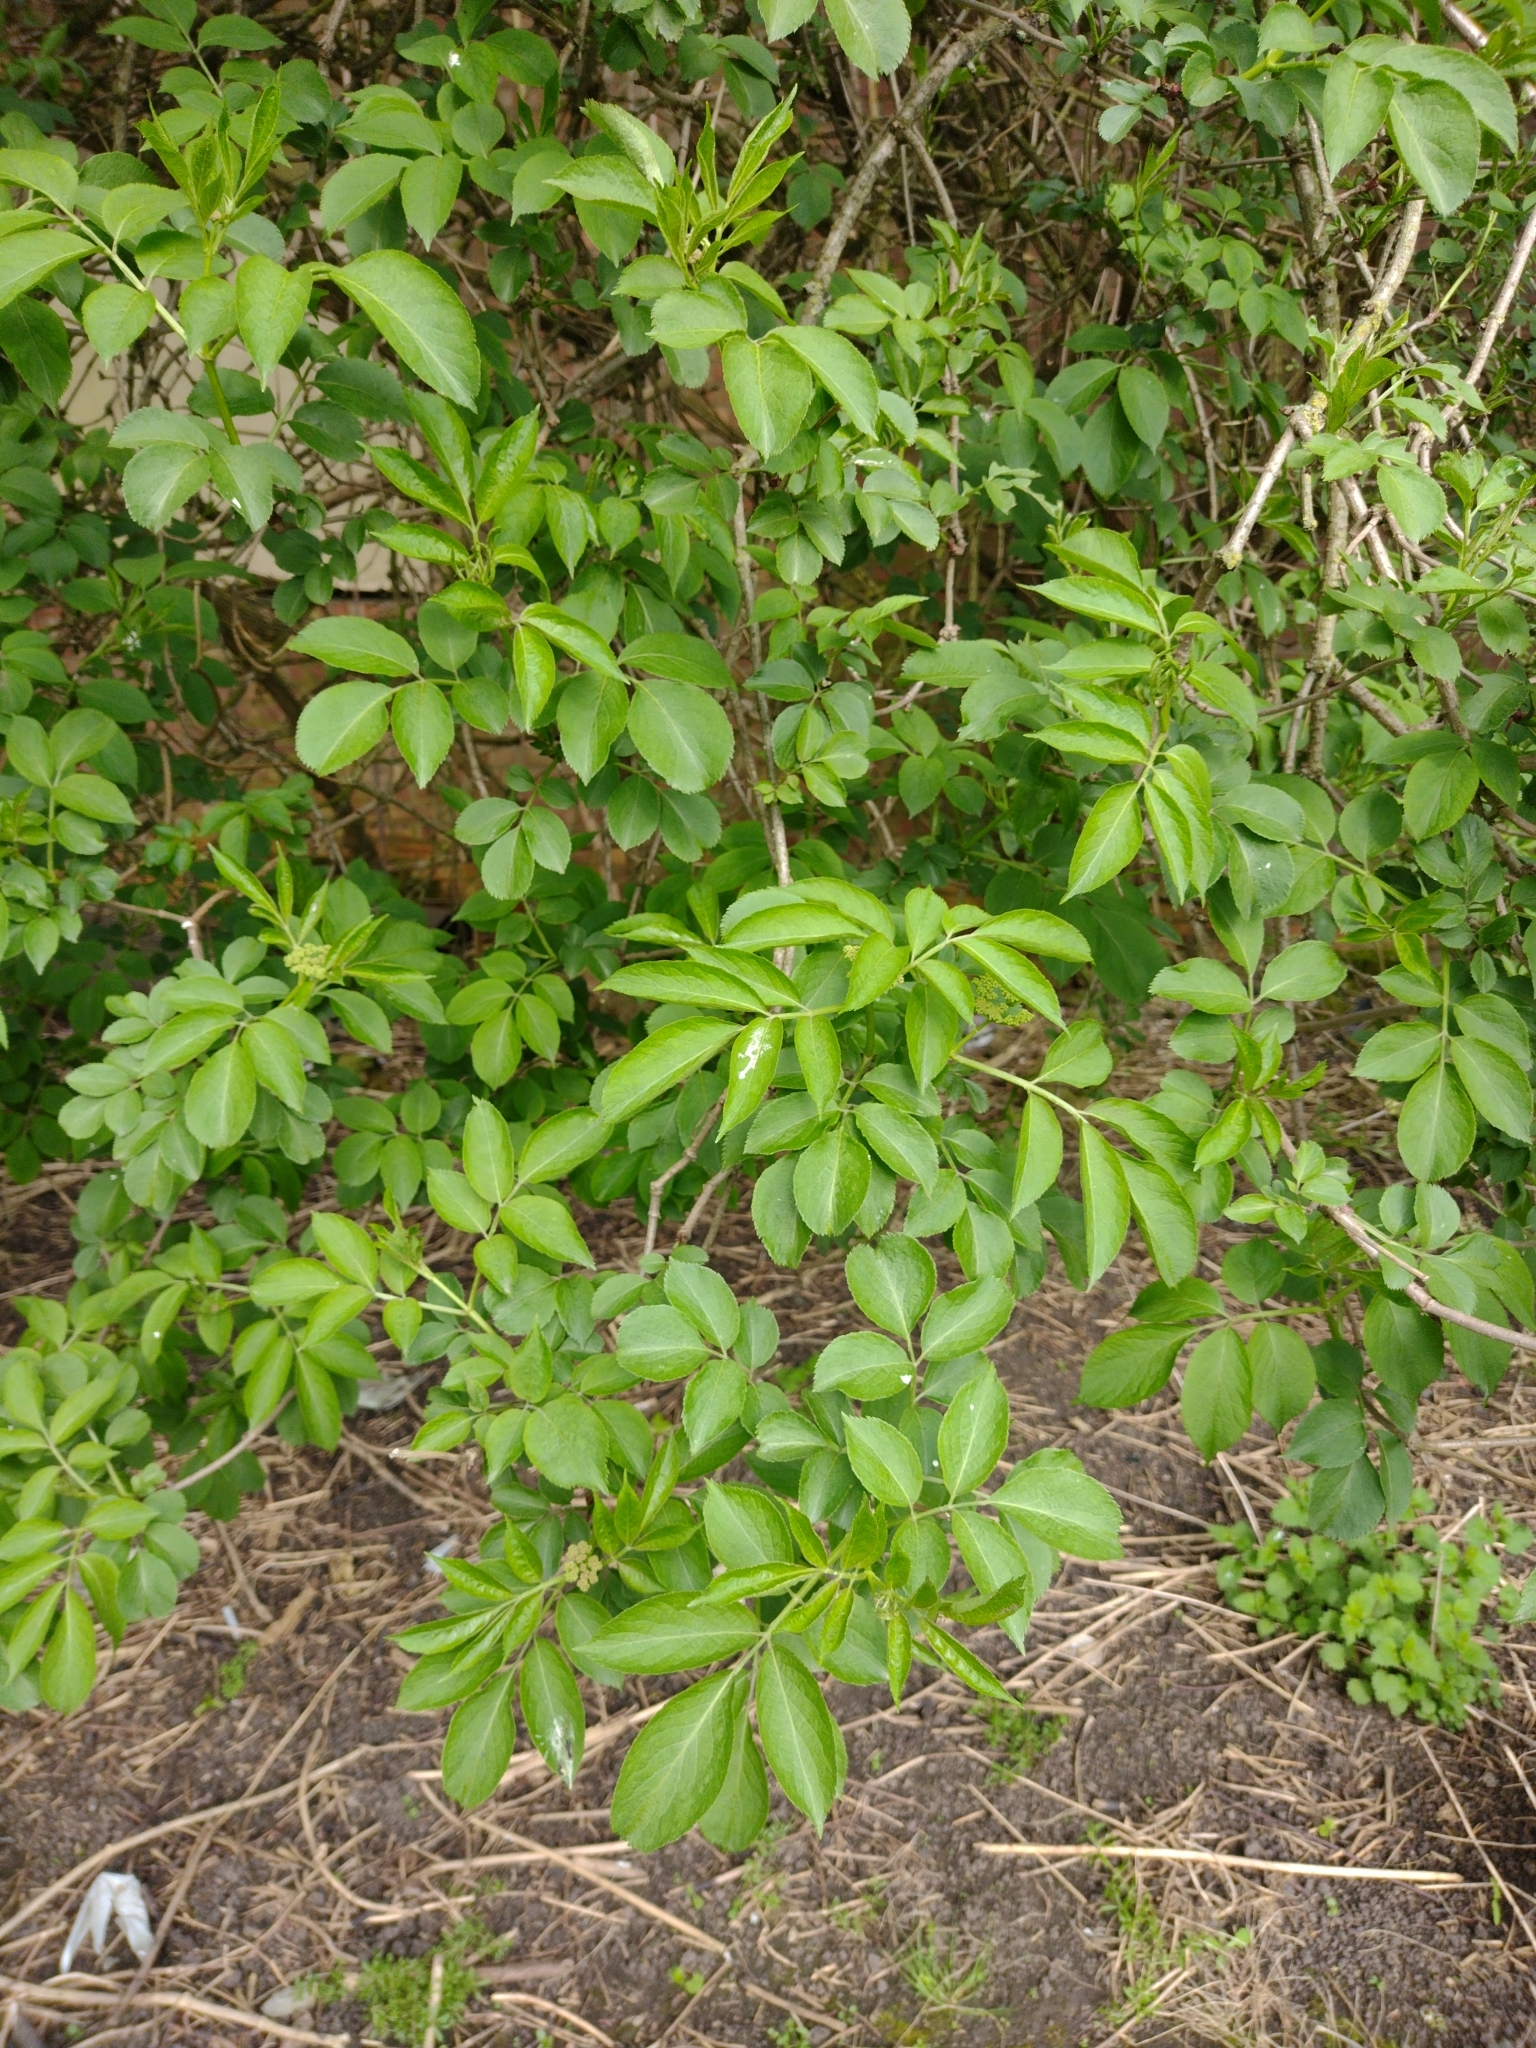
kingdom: Plantae
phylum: Tracheophyta
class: Magnoliopsida
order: Dipsacales
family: Viburnaceae
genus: Sambucus
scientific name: Sambucus nigra
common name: Elder
